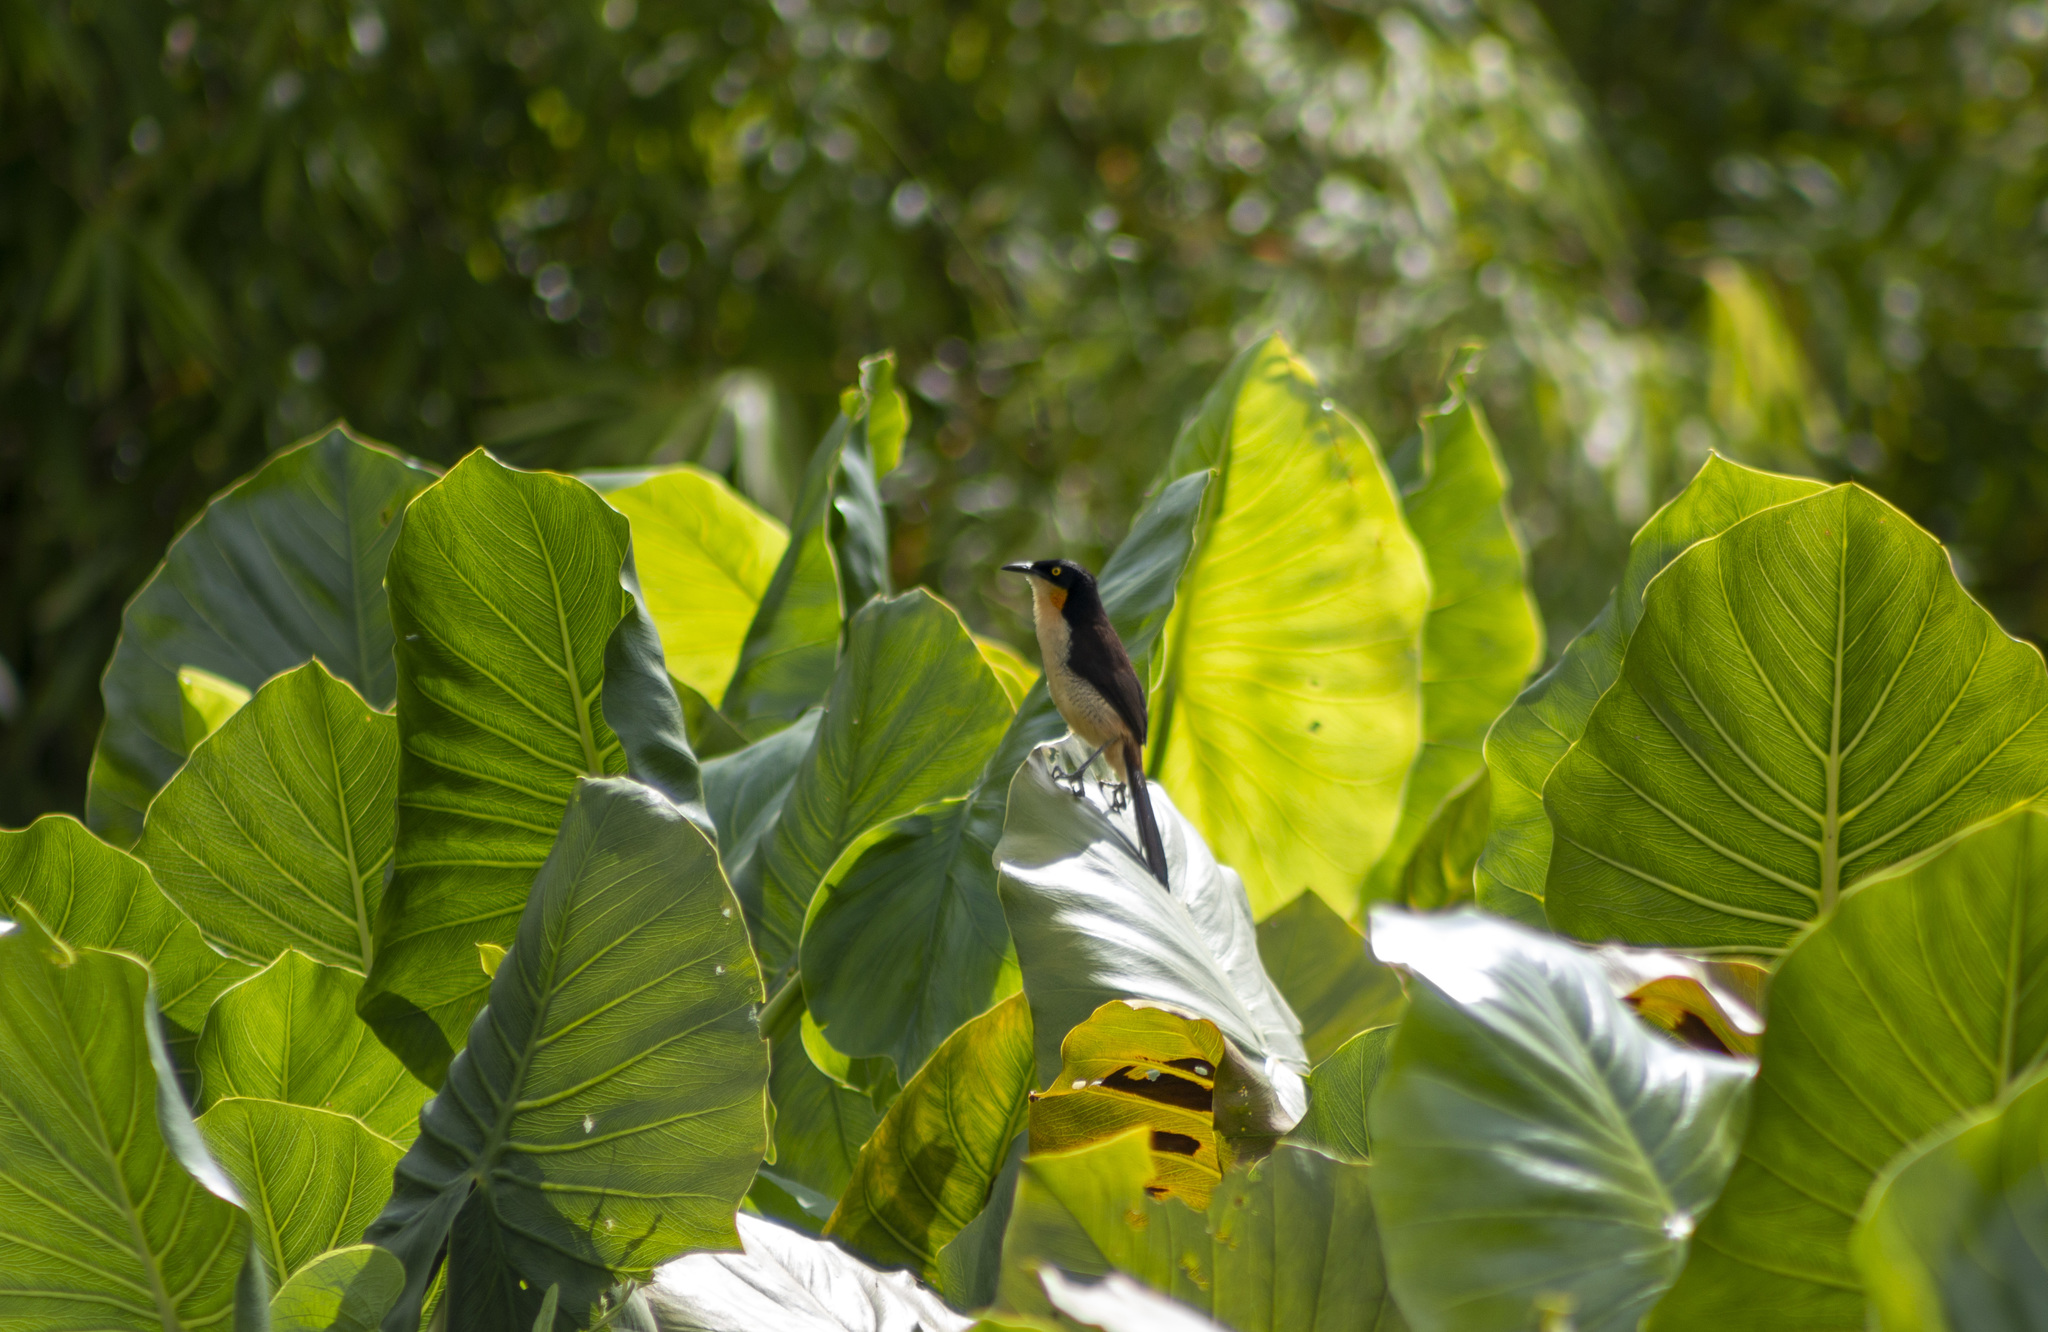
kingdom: Animalia
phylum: Chordata
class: Aves
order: Passeriformes
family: Donacobiidae
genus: Donacobius
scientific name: Donacobius atricapilla
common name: Black-capped donacobius
